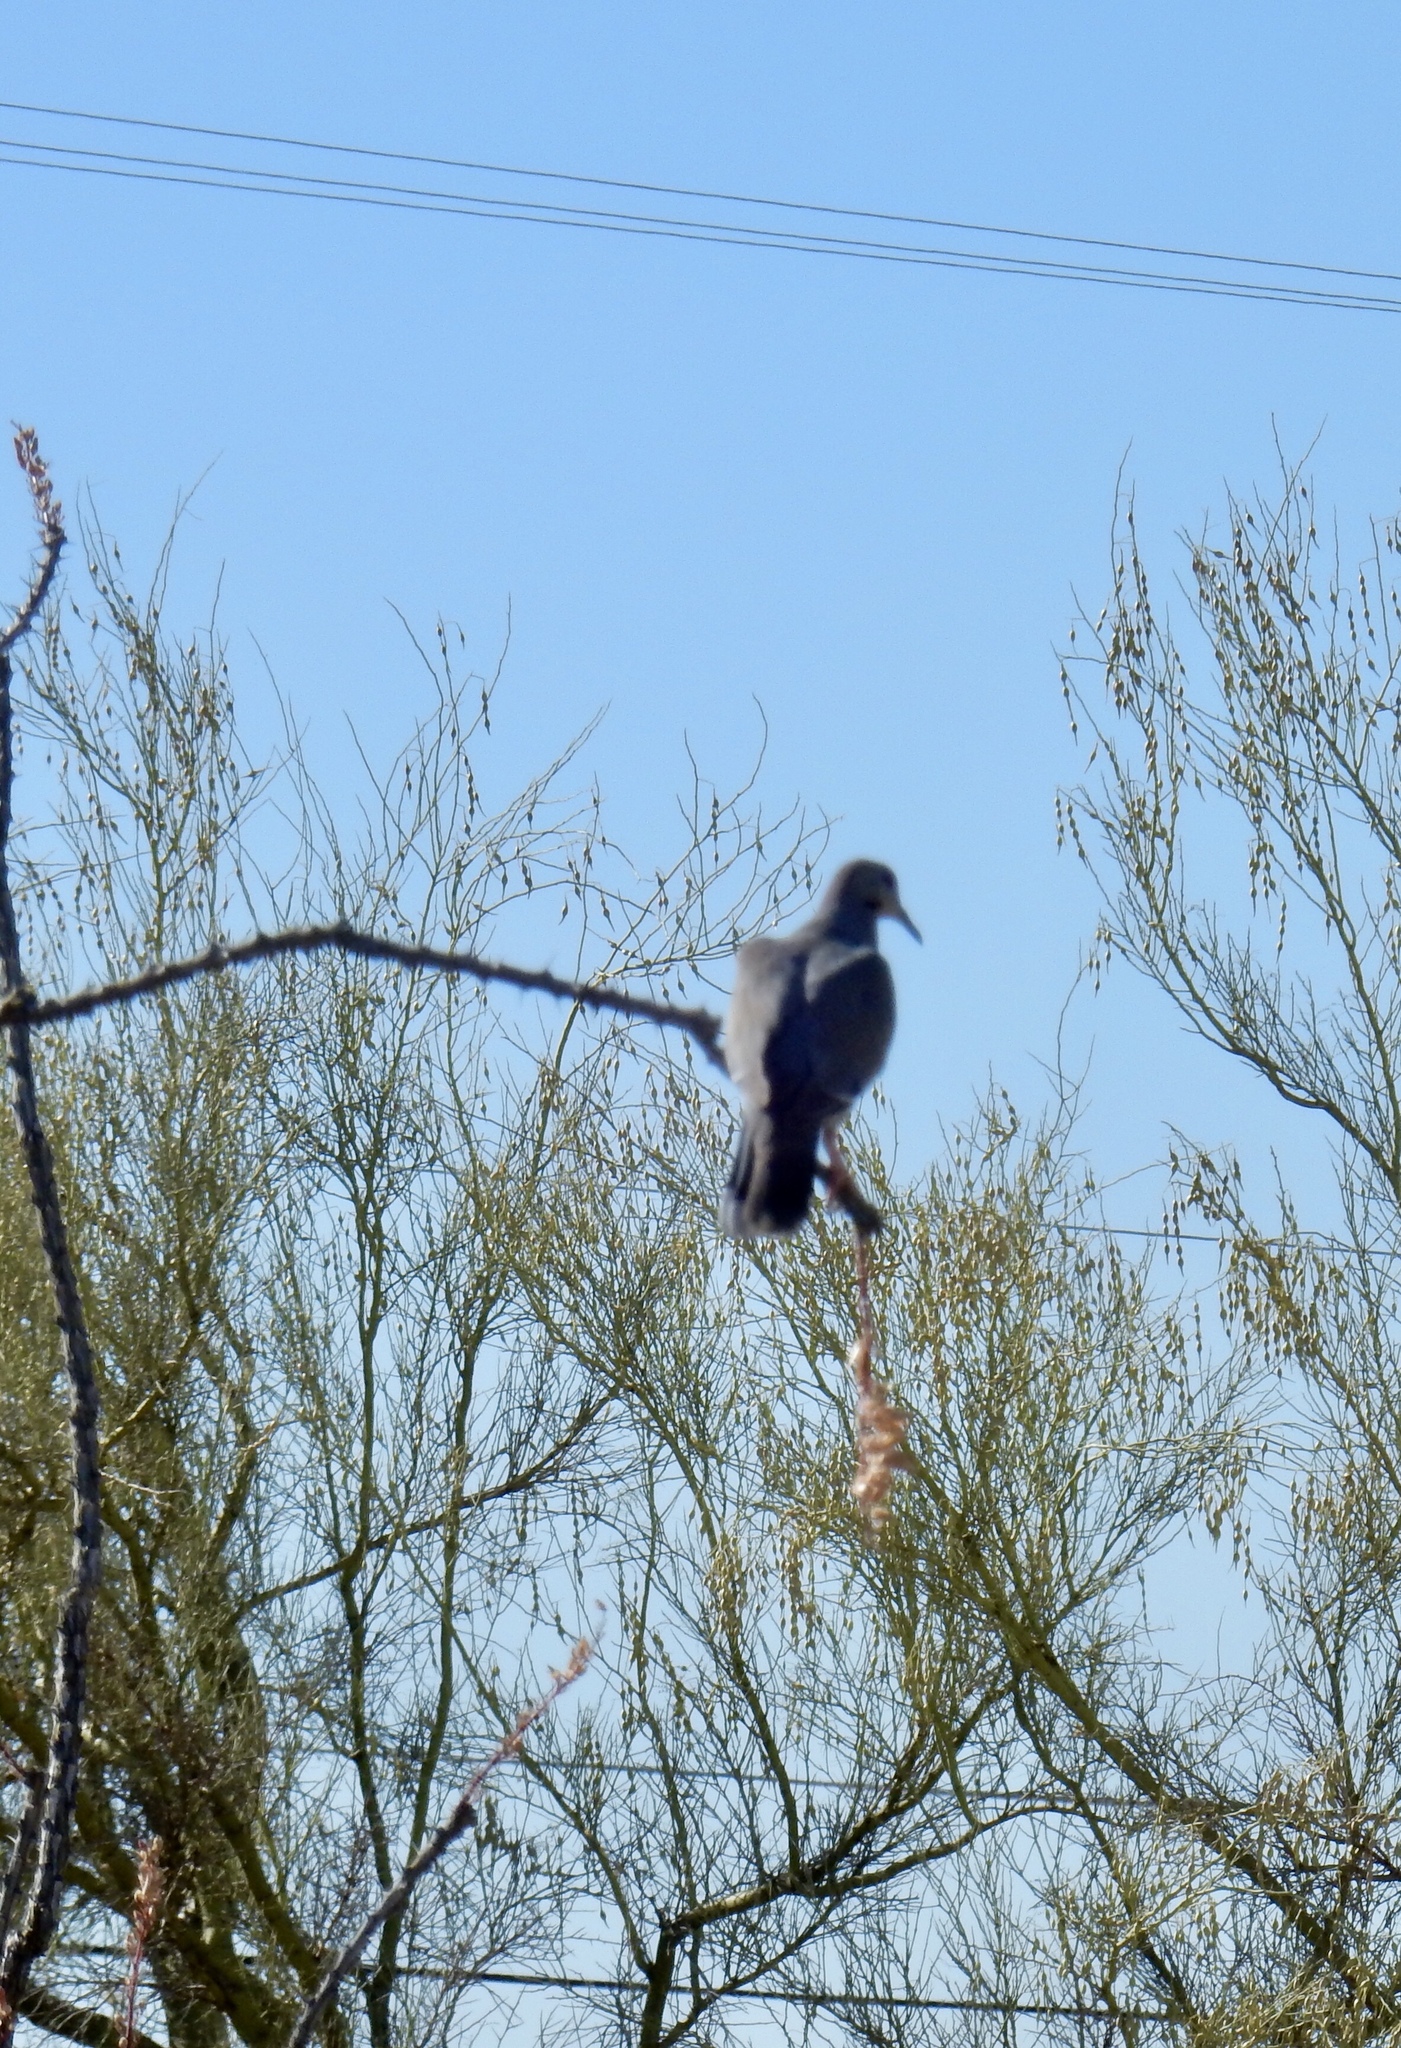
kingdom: Animalia
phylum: Chordata
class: Aves
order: Columbiformes
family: Columbidae
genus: Zenaida
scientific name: Zenaida asiatica
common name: White-winged dove
